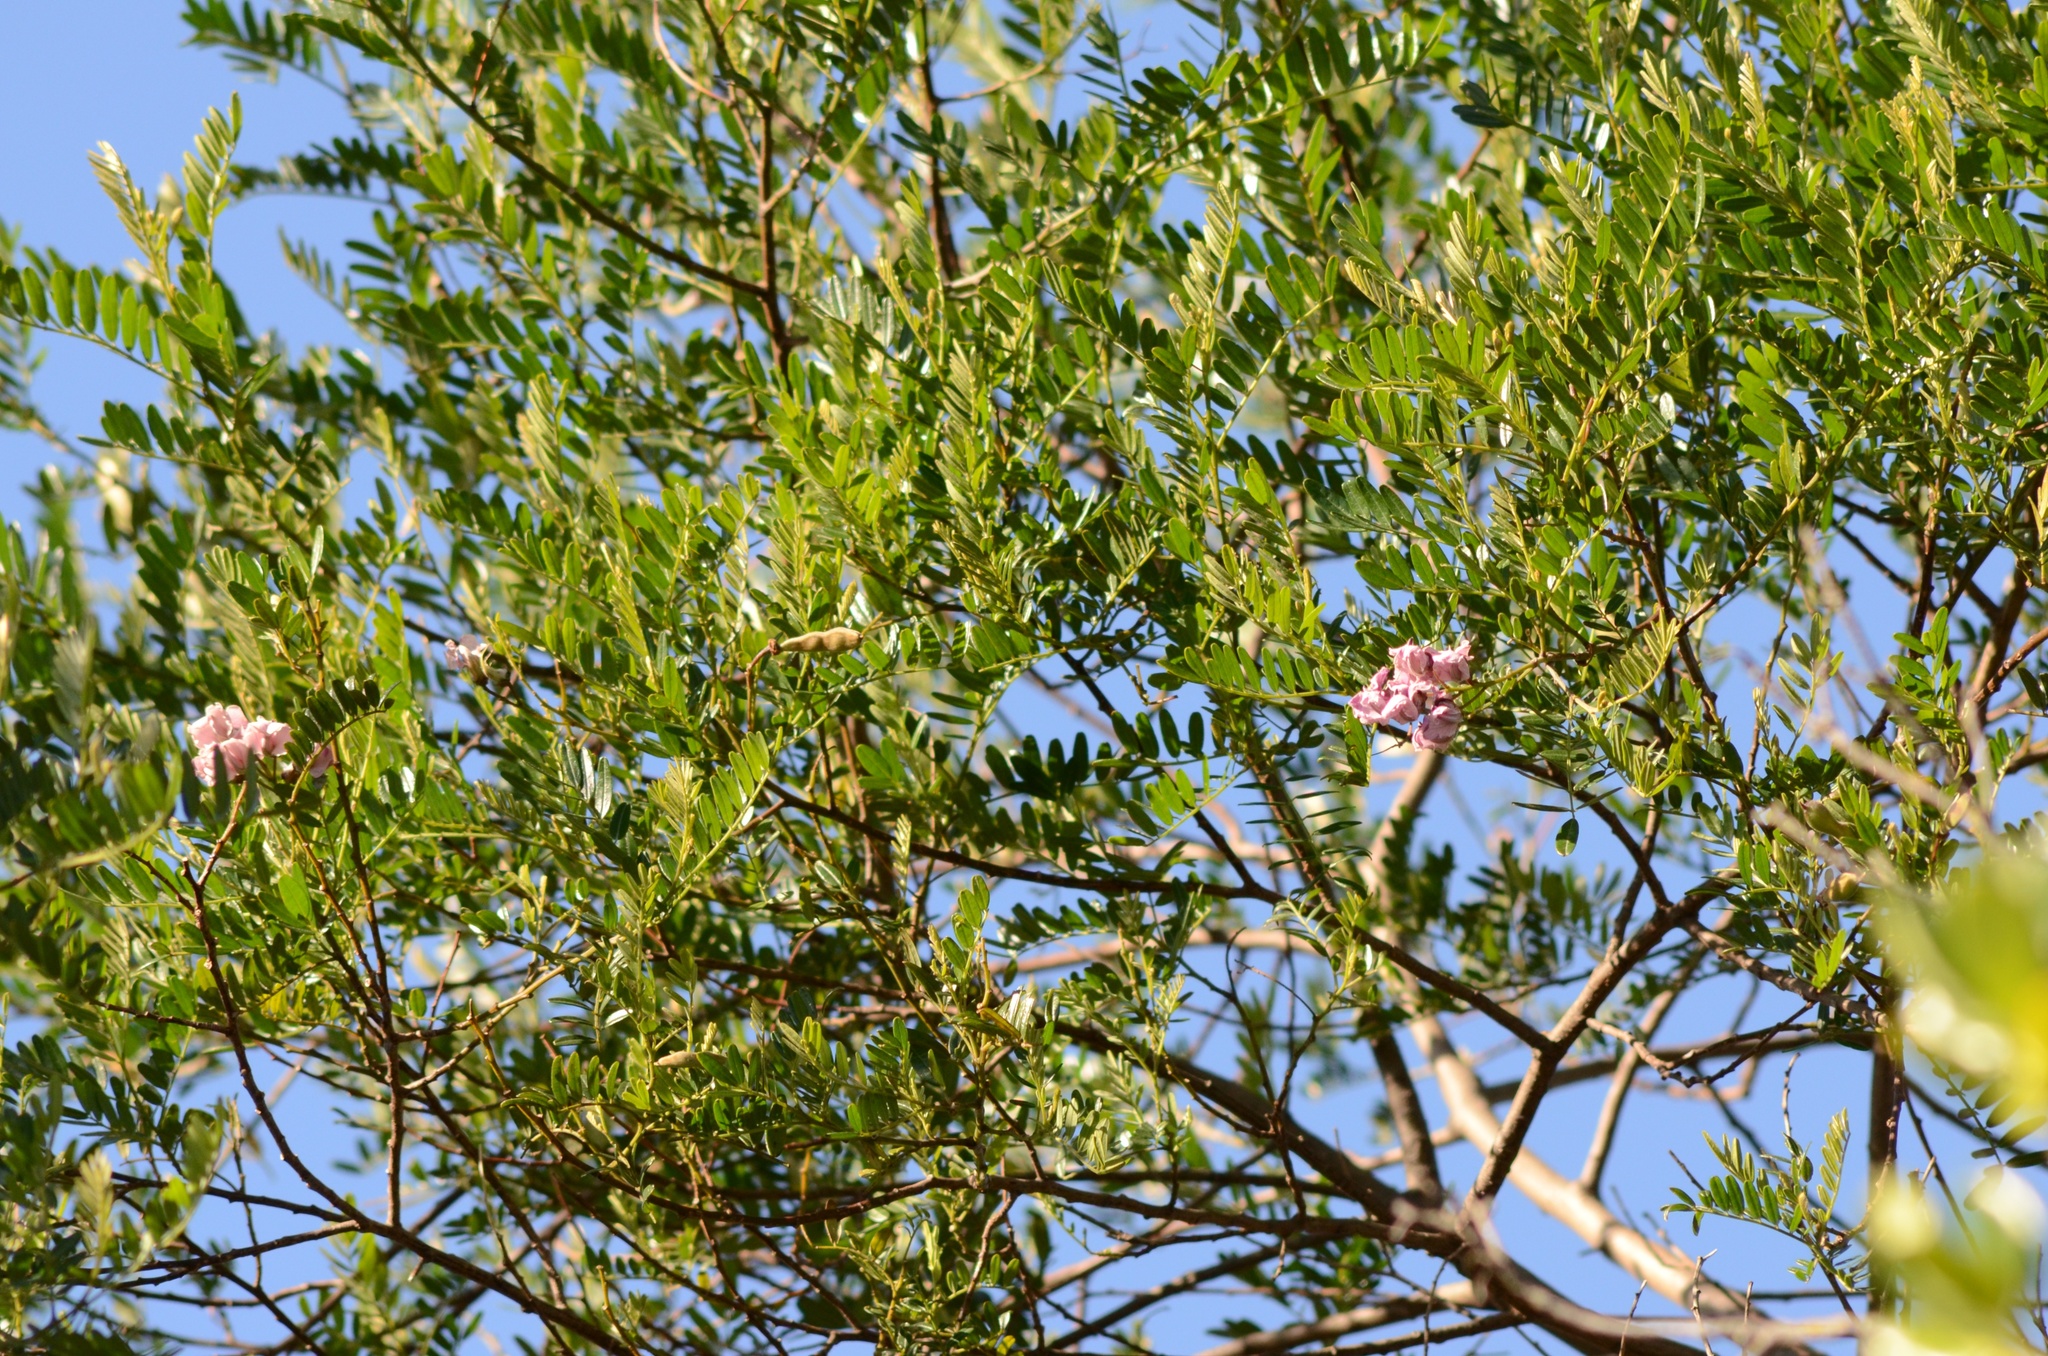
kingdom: Animalia
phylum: Chordata
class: Aves
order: Columbiformes
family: Columbidae
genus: Hemiphaga
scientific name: Hemiphaga novaeseelandiae
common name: New zealand pigeon
